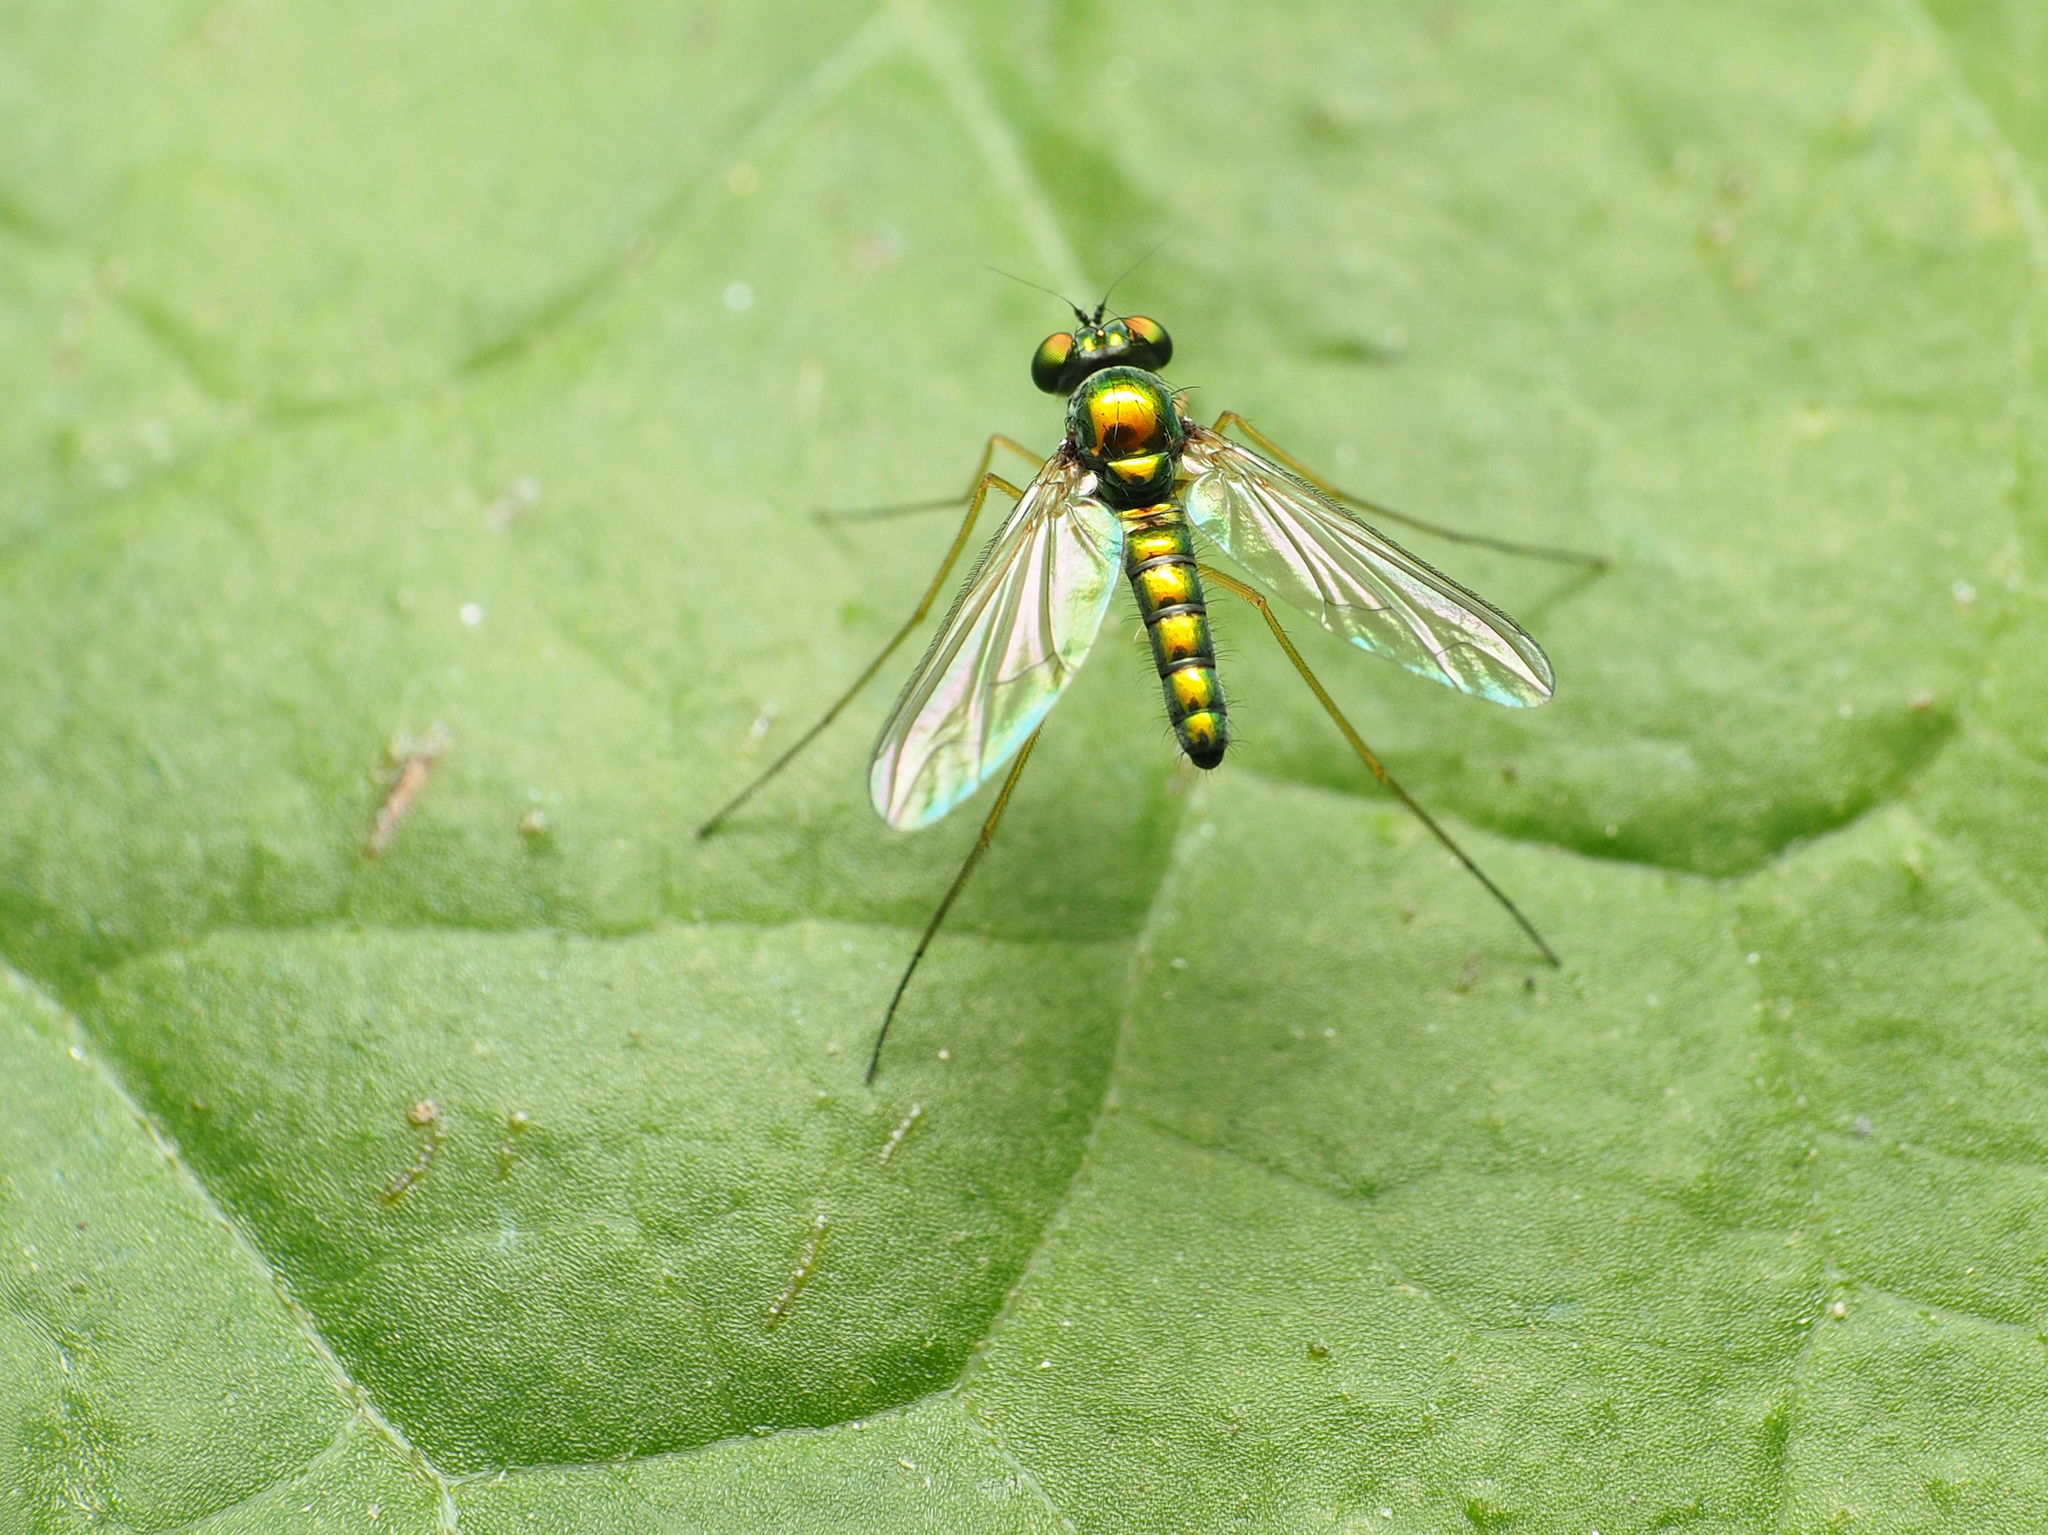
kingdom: Animalia
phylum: Arthropoda
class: Insecta
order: Diptera
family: Dolichopodidae
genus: Amblypsilopus
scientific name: Amblypsilopus scintillans
